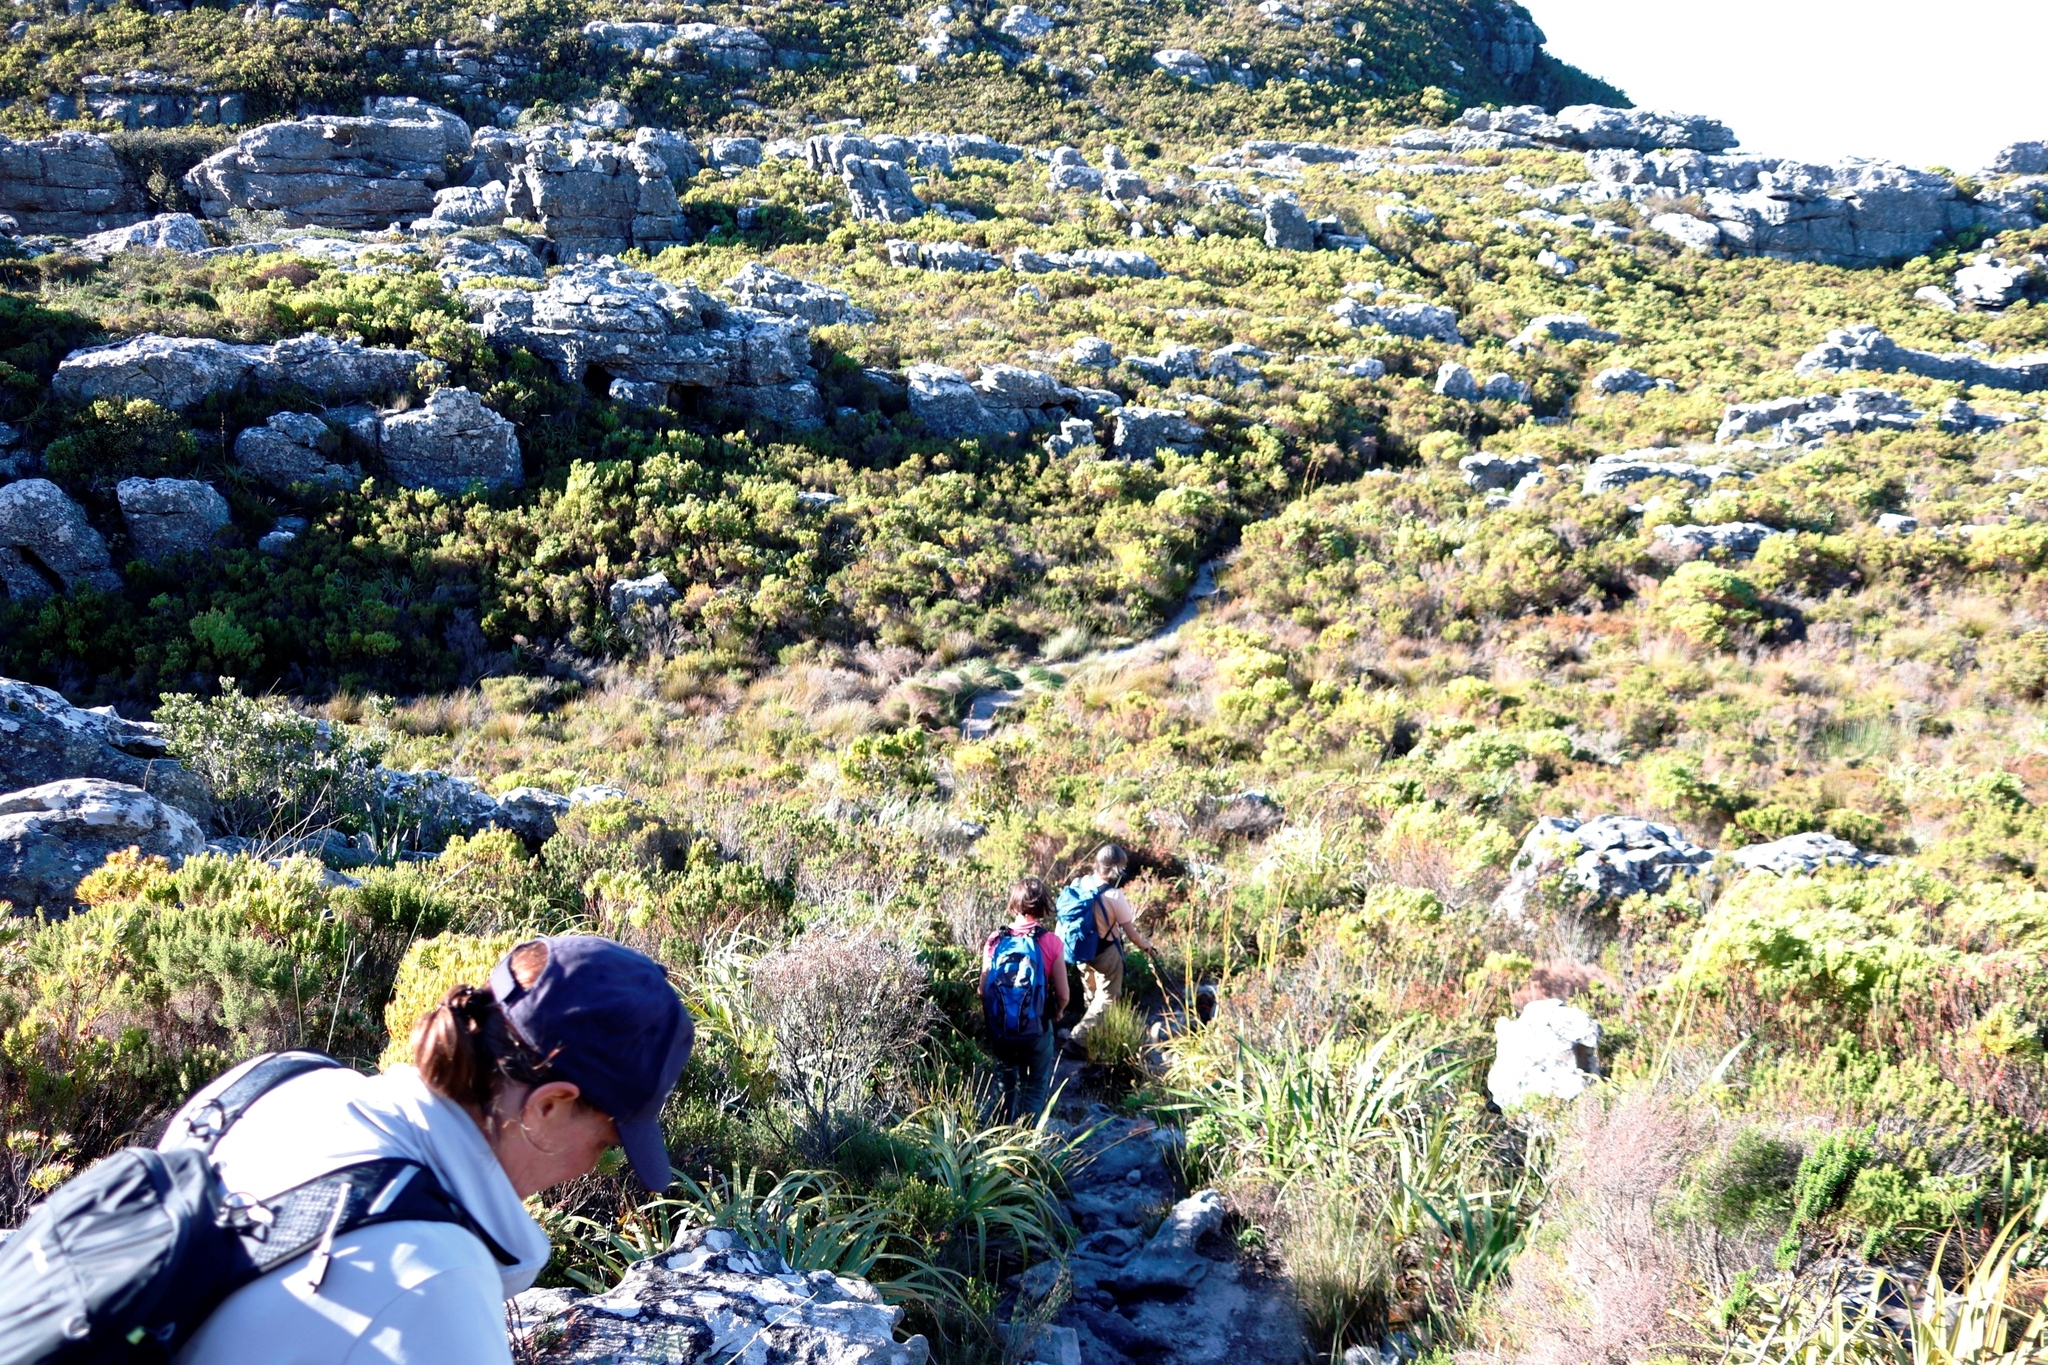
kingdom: Plantae
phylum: Tracheophyta
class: Liliopsida
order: Poales
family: Cyperaceae
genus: Tetraria
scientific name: Tetraria thermalis
